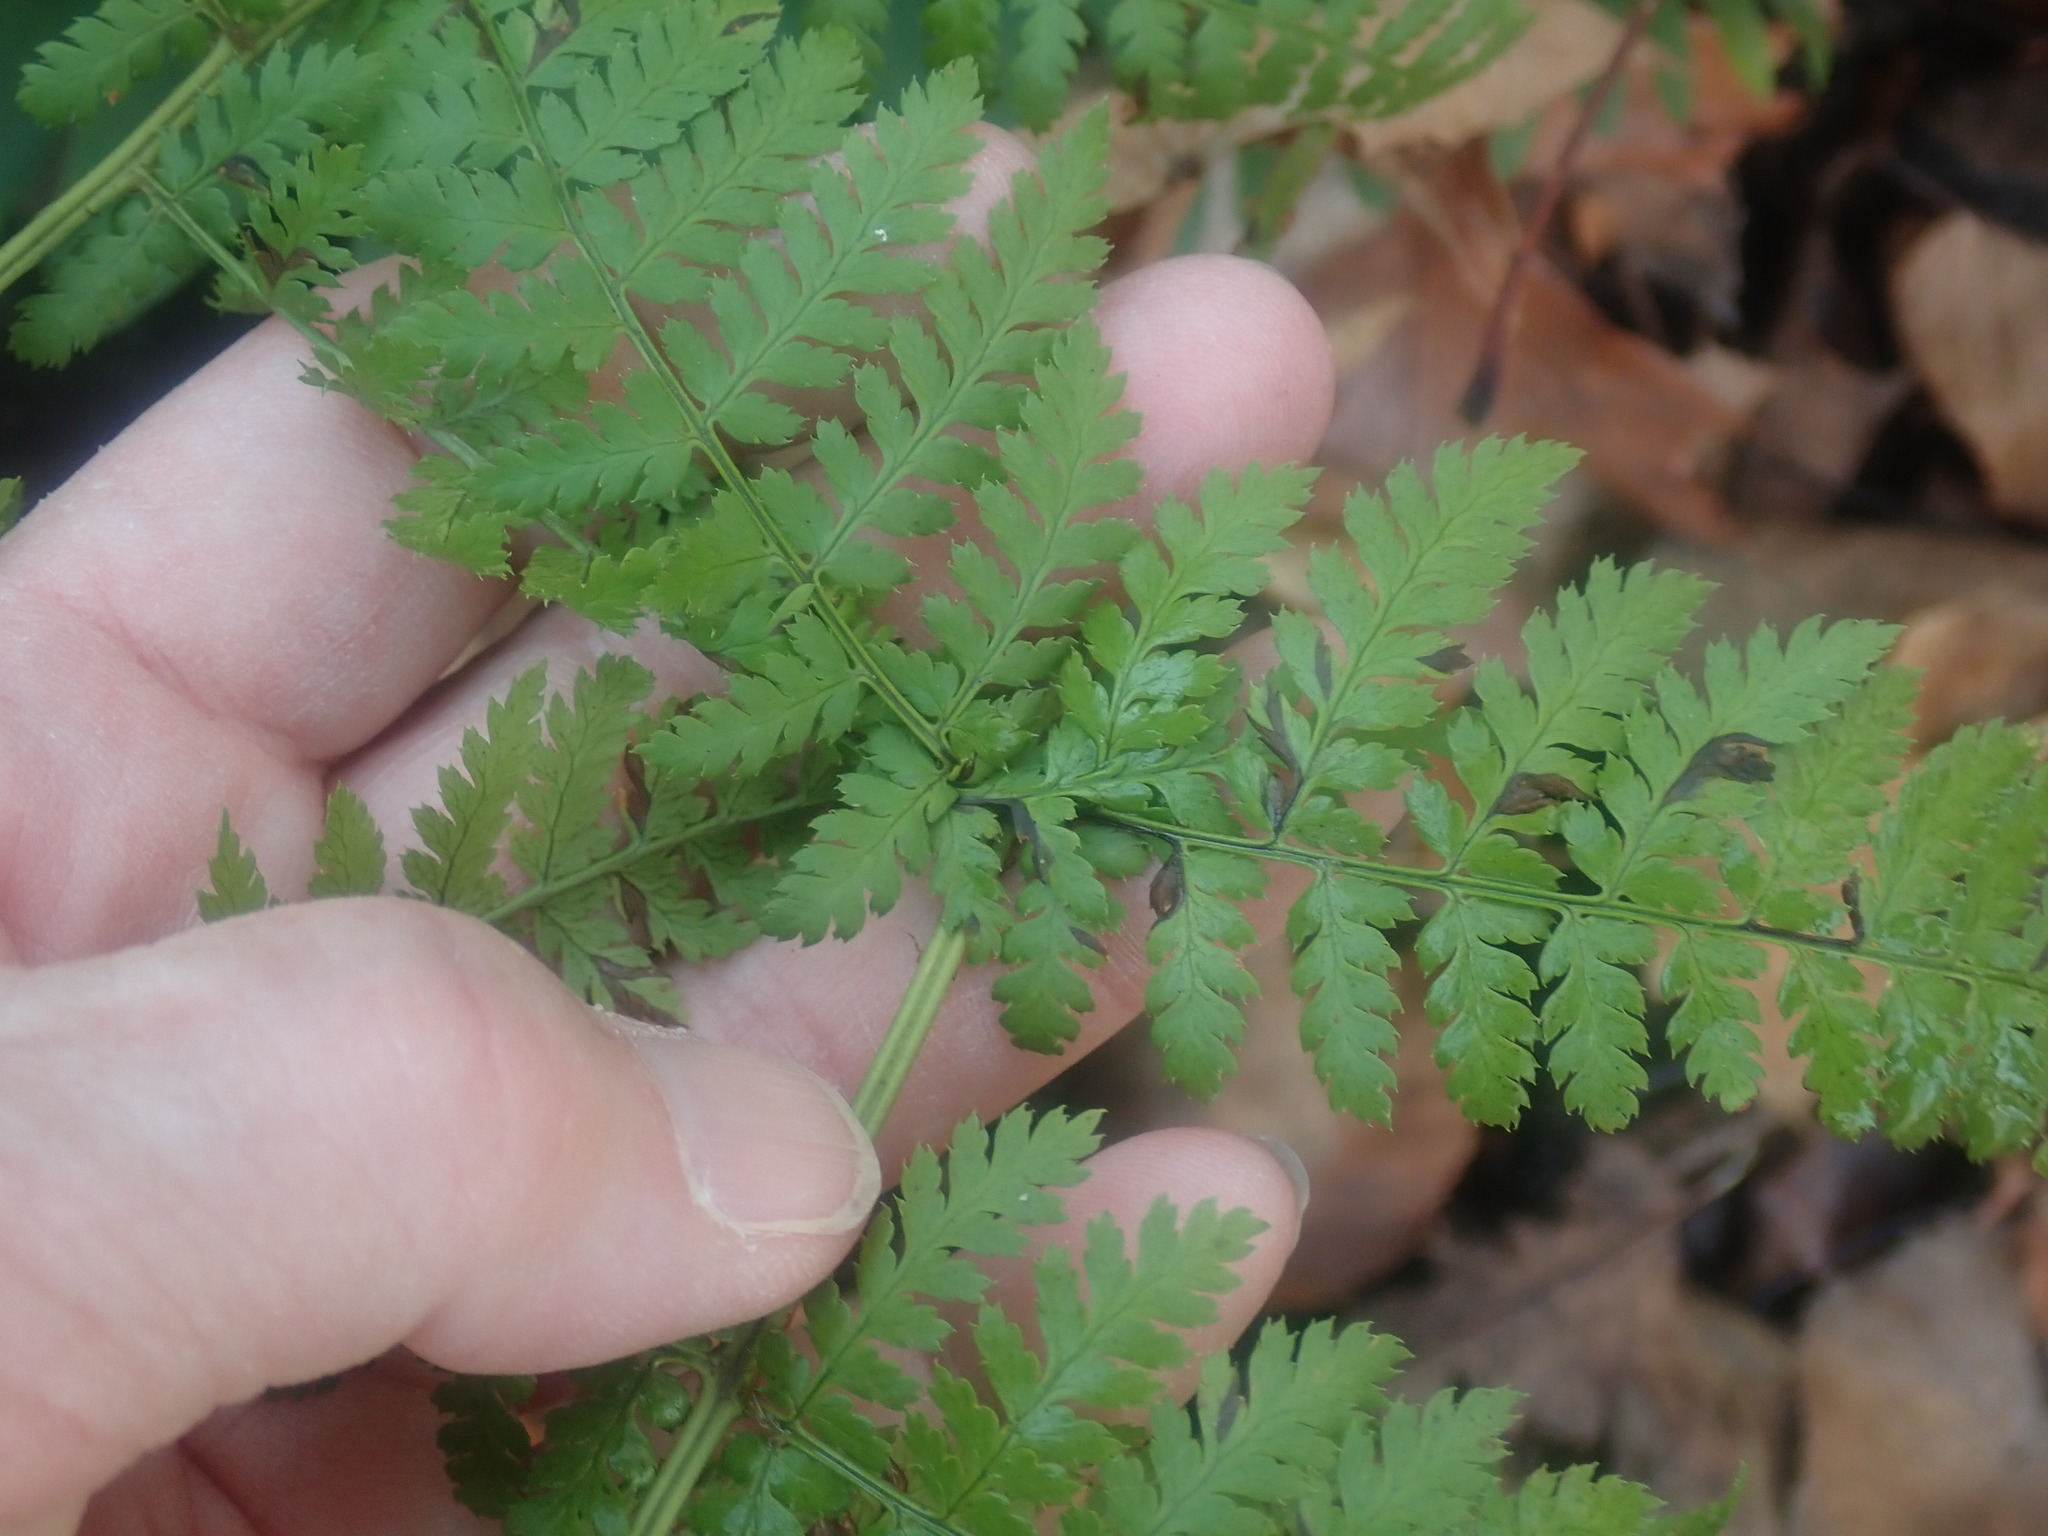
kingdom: Plantae
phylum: Tracheophyta
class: Polypodiopsida
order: Polypodiales
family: Dryopteridaceae
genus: Dryopteris
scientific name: Dryopteris intermedia
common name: Evergreen wood fern
